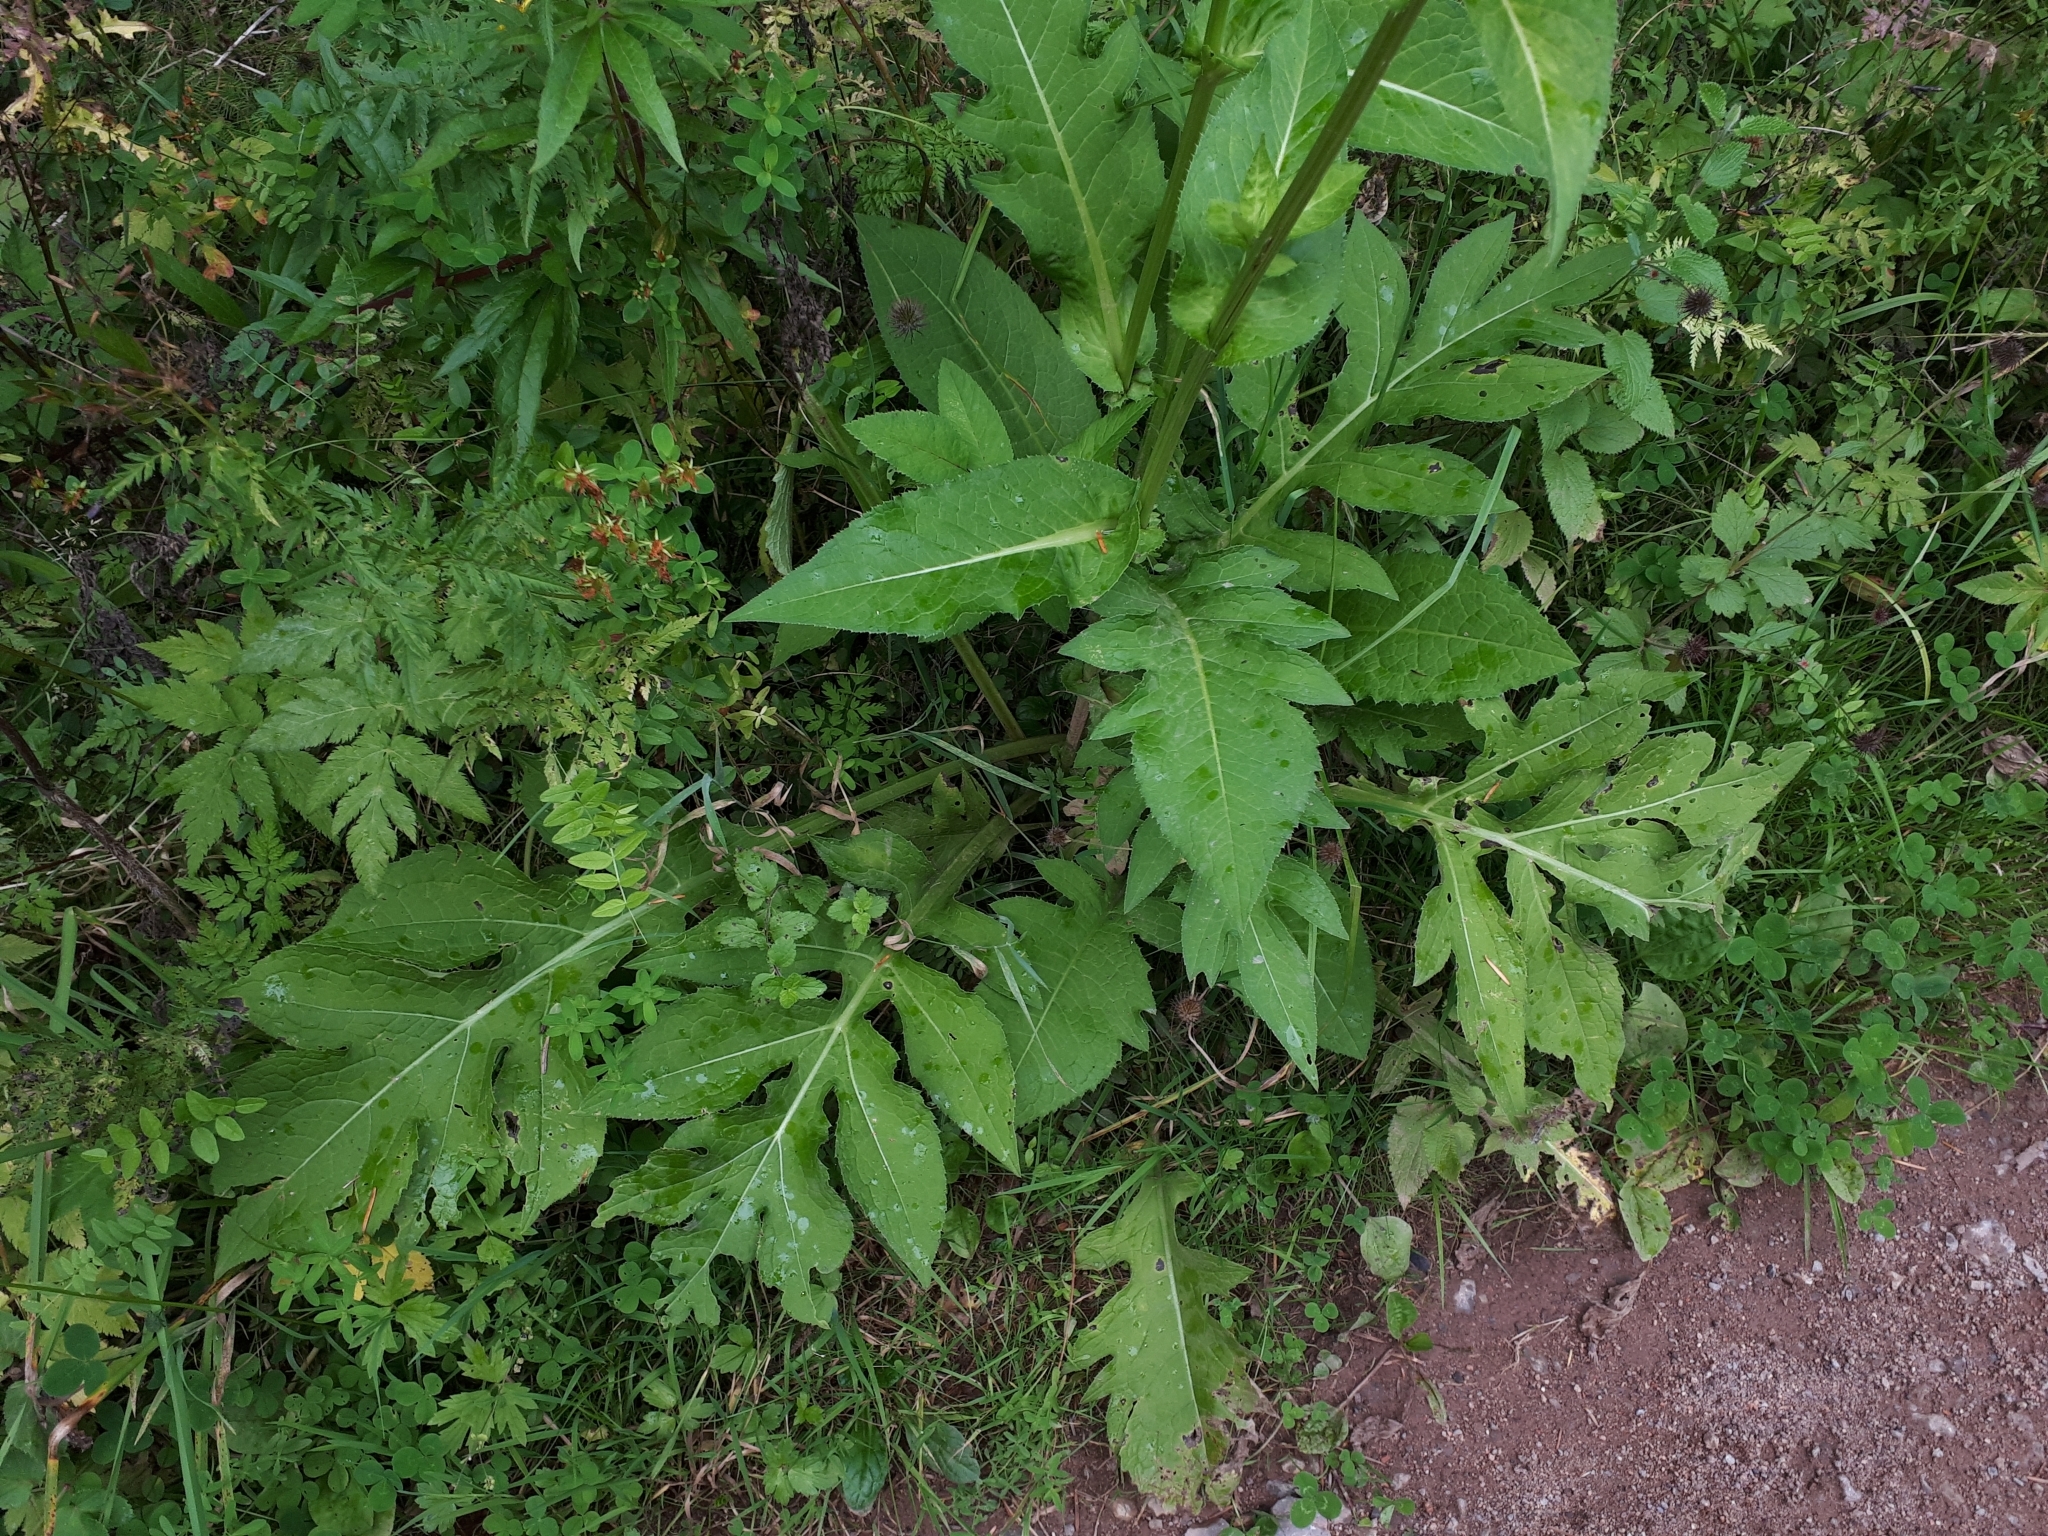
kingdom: Plantae
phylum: Tracheophyta
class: Magnoliopsida
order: Asterales
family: Asteraceae
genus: Cirsium
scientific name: Cirsium oleraceum
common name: Cabbage thistle
